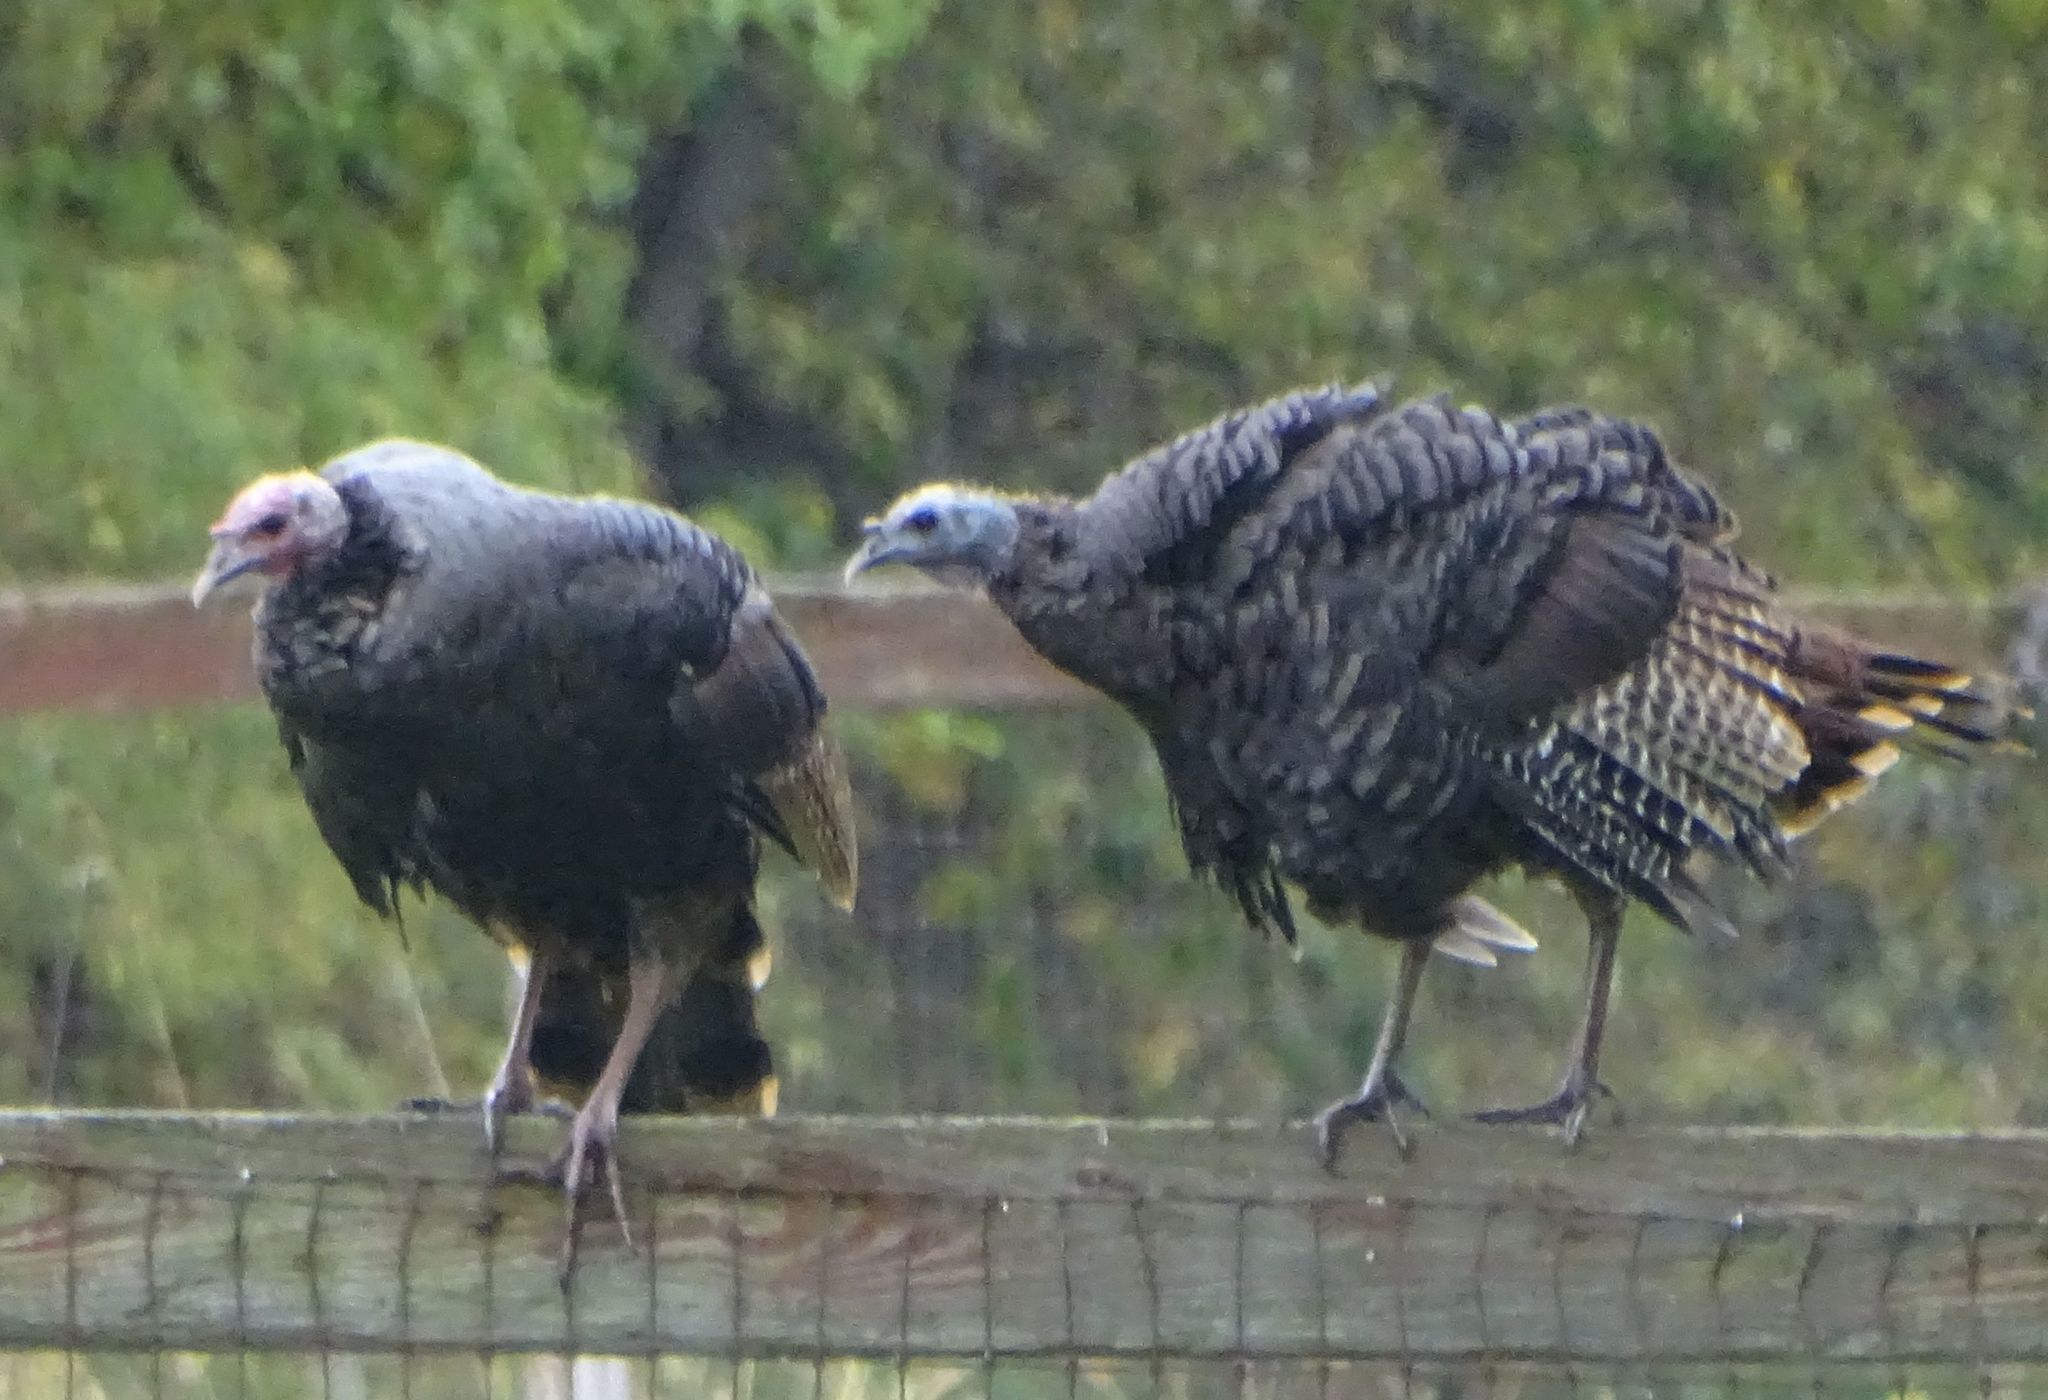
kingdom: Animalia
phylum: Chordata
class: Aves
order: Galliformes
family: Phasianidae
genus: Meleagris
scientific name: Meleagris gallopavo
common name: Wild turkey
